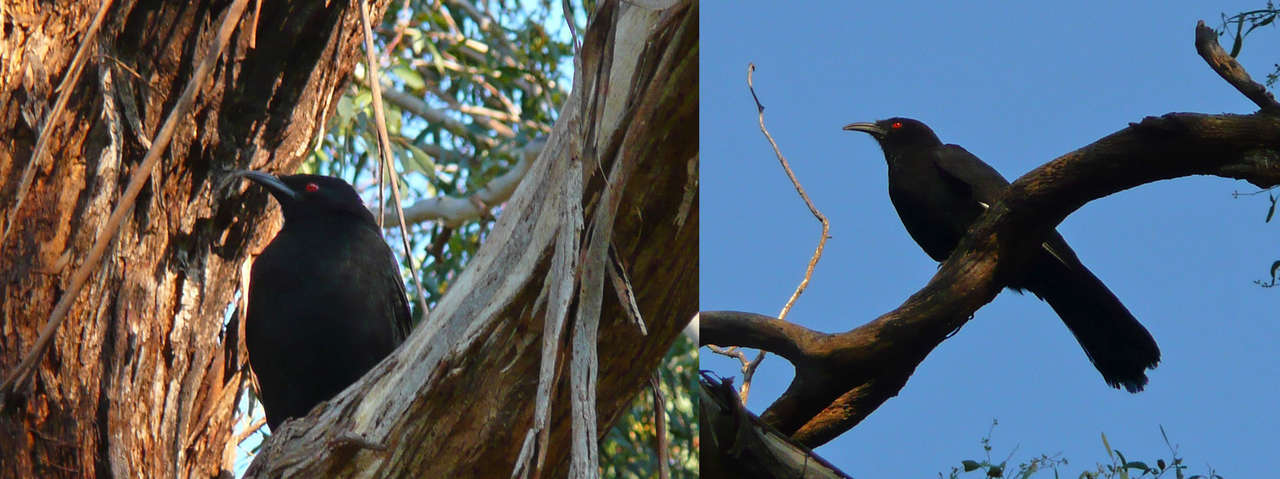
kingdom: Animalia
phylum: Chordata
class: Aves
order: Passeriformes
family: Corcoracidae
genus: Corcorax
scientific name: Corcorax melanoramphos
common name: White-winged chough
